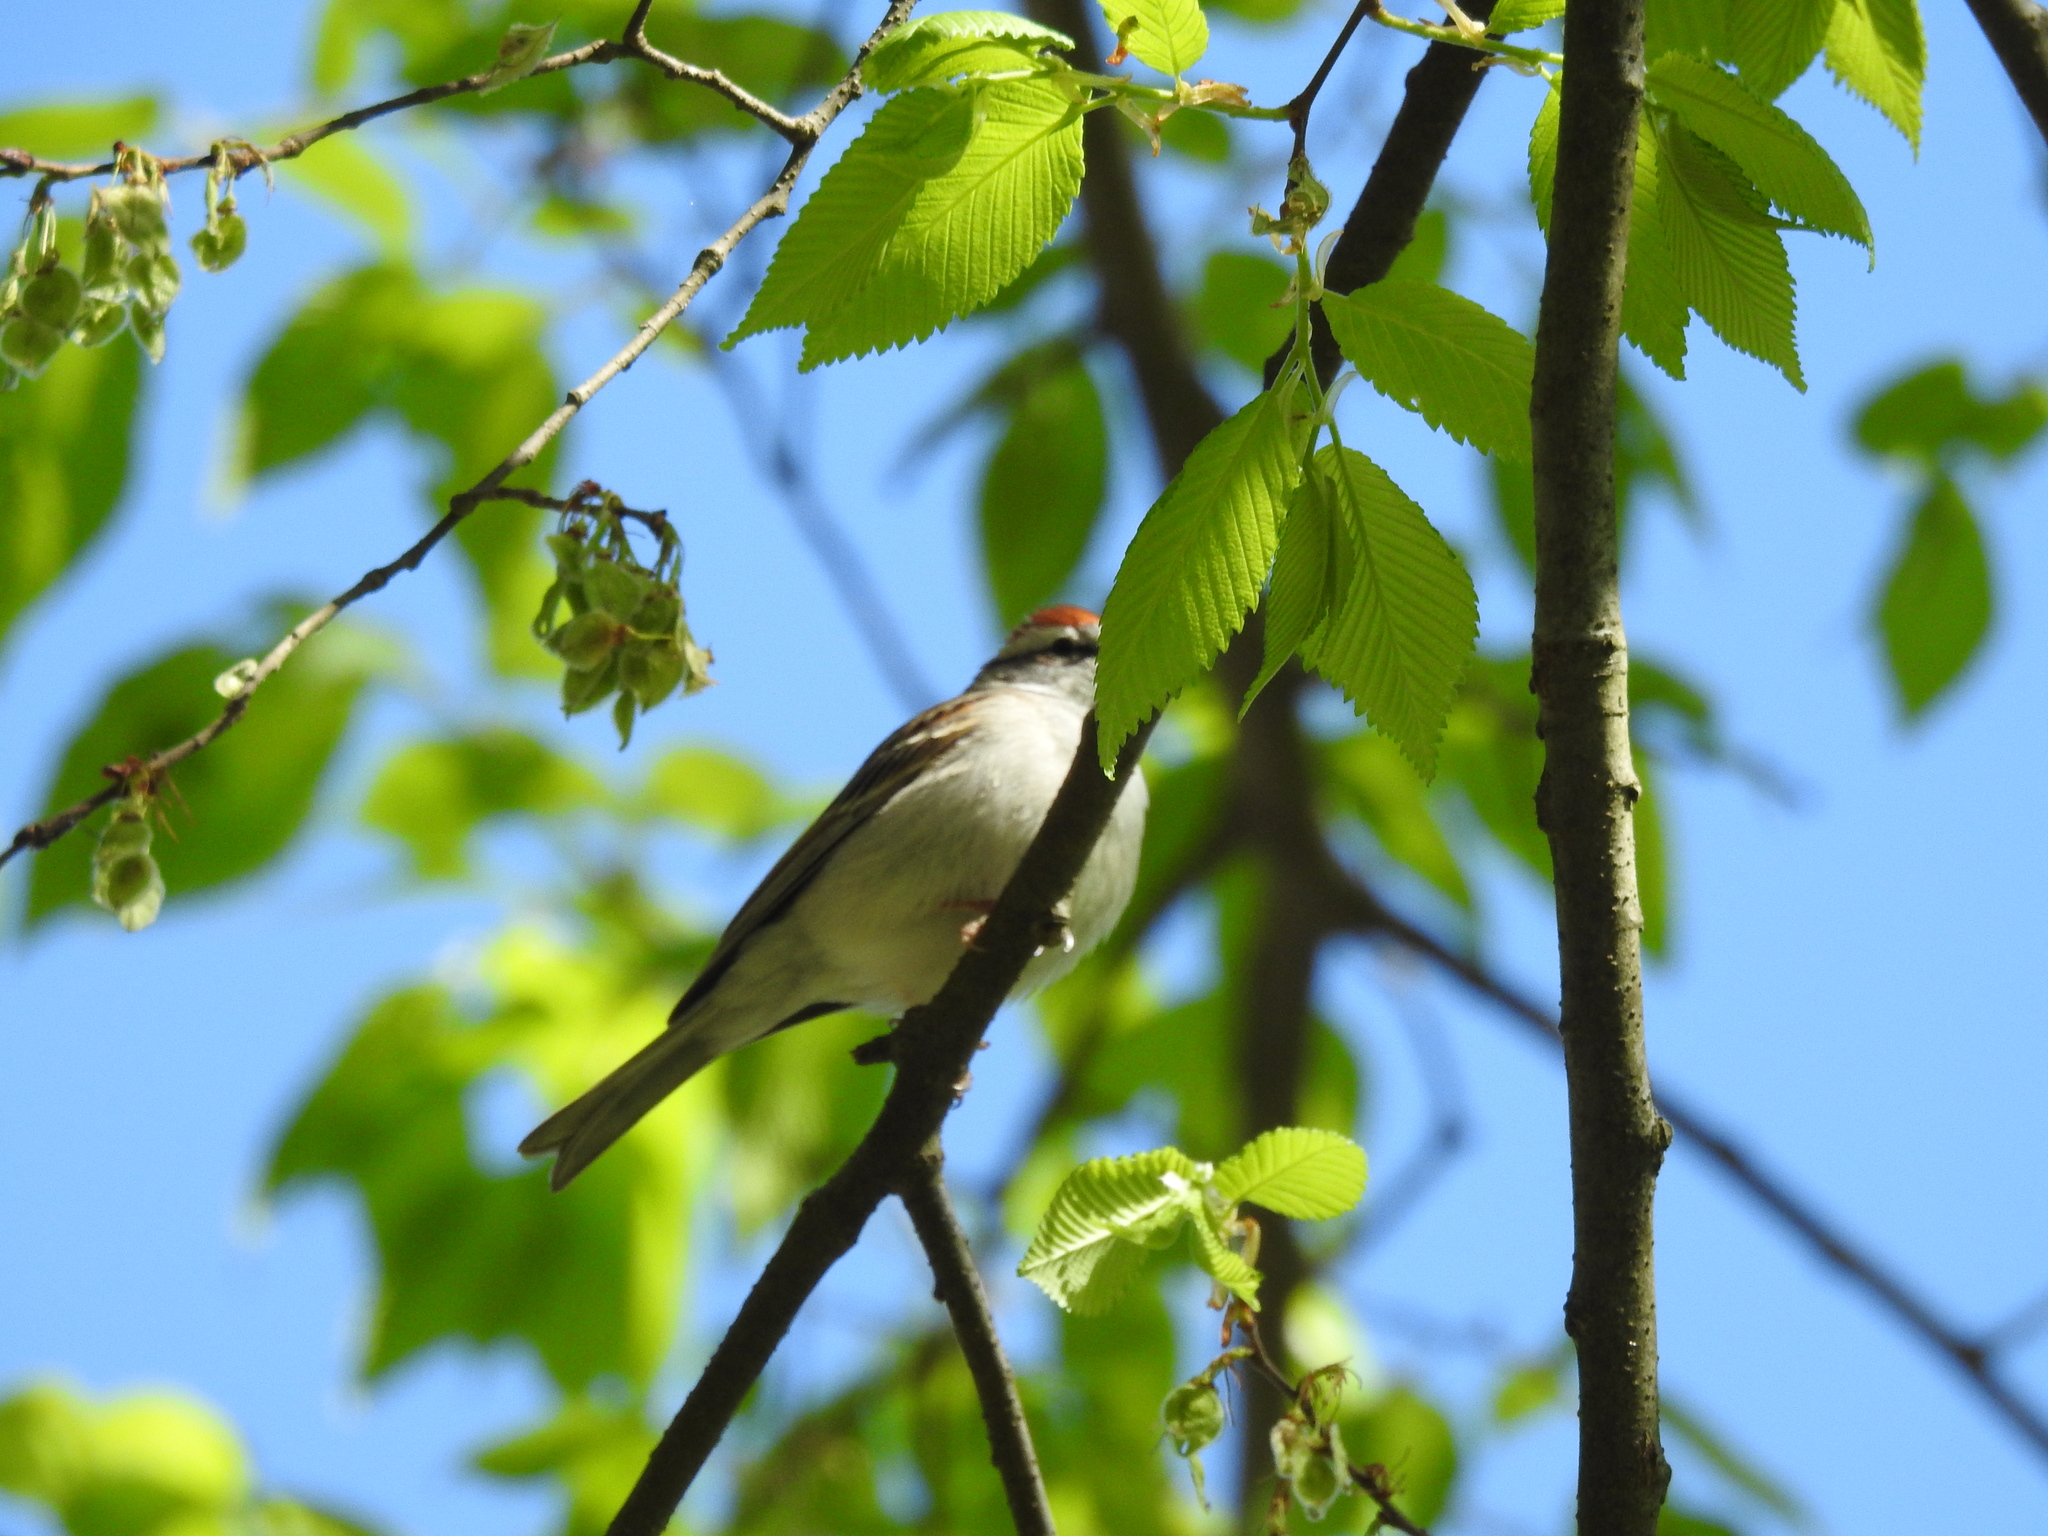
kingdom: Animalia
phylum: Chordata
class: Aves
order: Passeriformes
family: Passerellidae
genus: Spizella
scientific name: Spizella passerina
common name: Chipping sparrow
